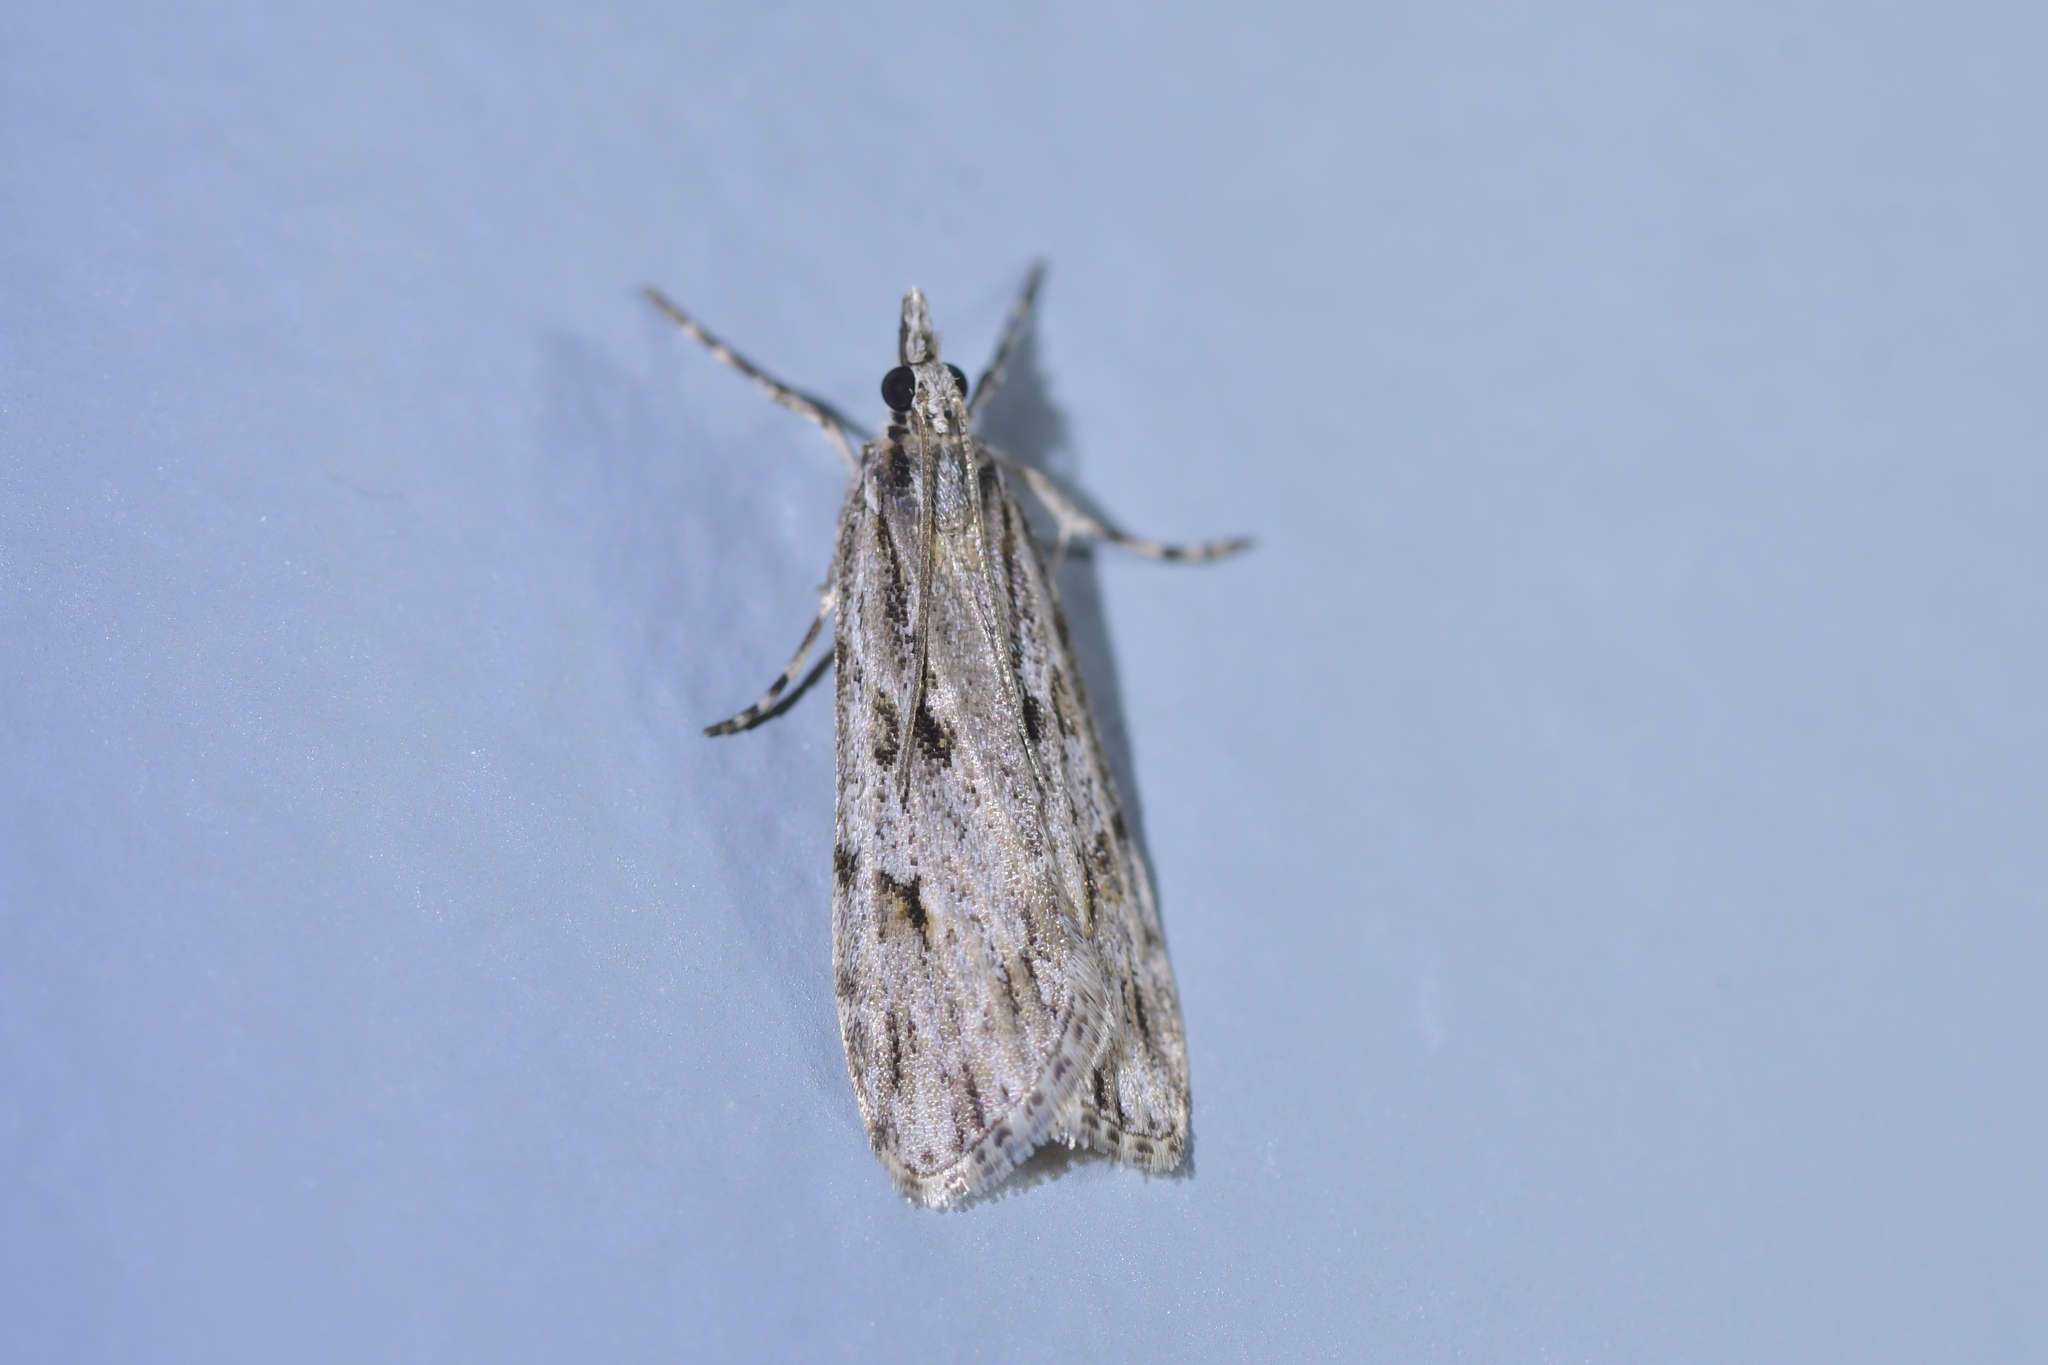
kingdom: Animalia
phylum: Arthropoda
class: Insecta
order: Lepidoptera
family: Crambidae
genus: Scoparia
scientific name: Scoparia chalicodes
